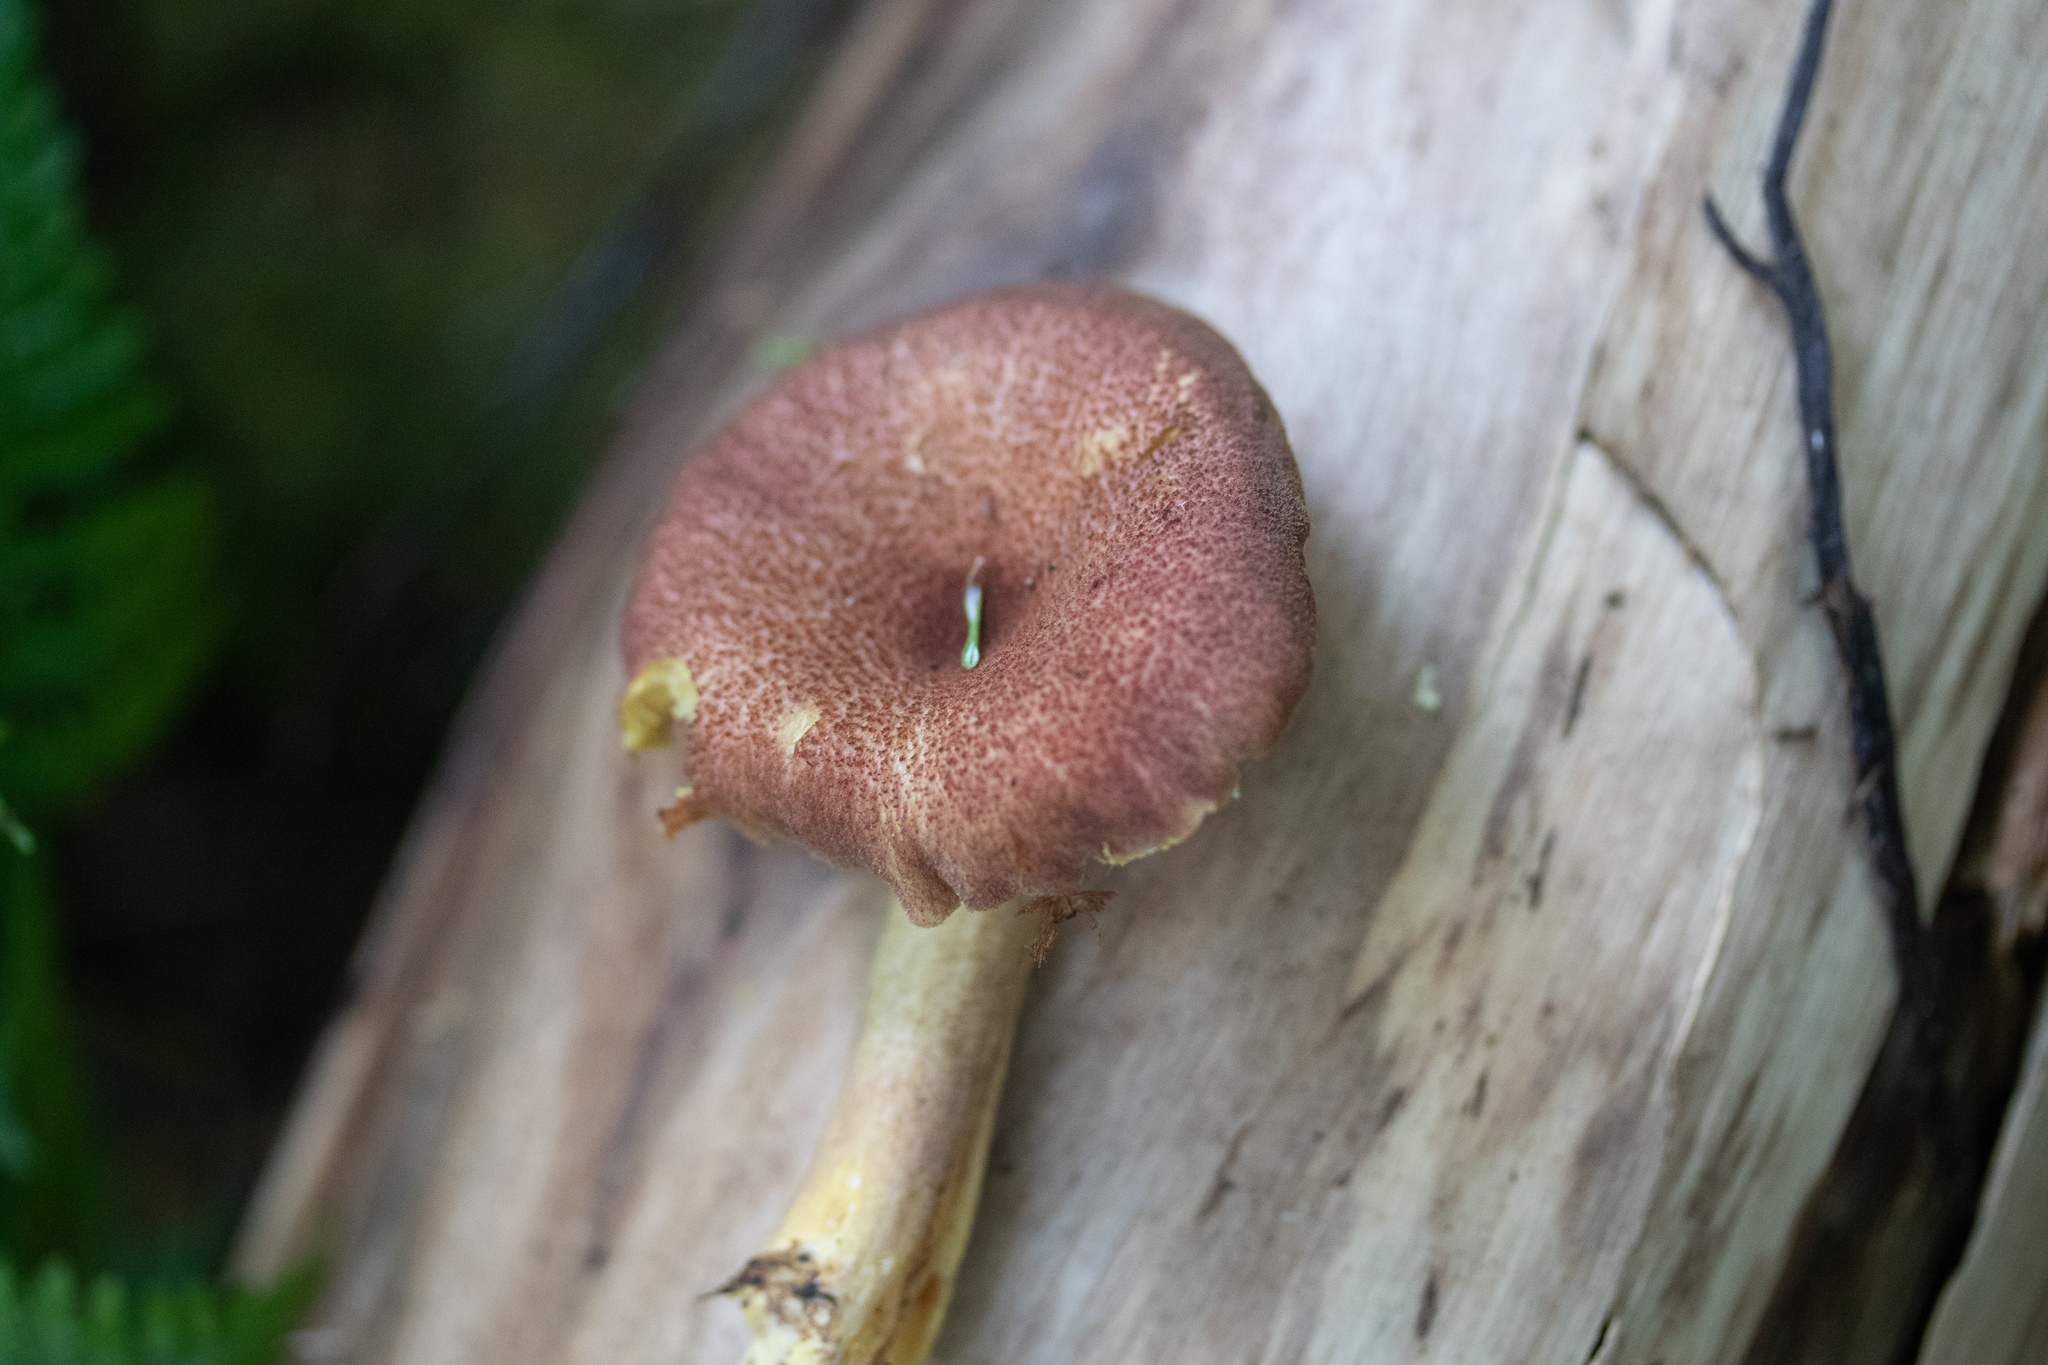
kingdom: Fungi
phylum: Basidiomycota
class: Agaricomycetes
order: Agaricales
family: Tricholomataceae
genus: Tricholomopsis
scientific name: Tricholomopsis rutilans
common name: Plums and custard
